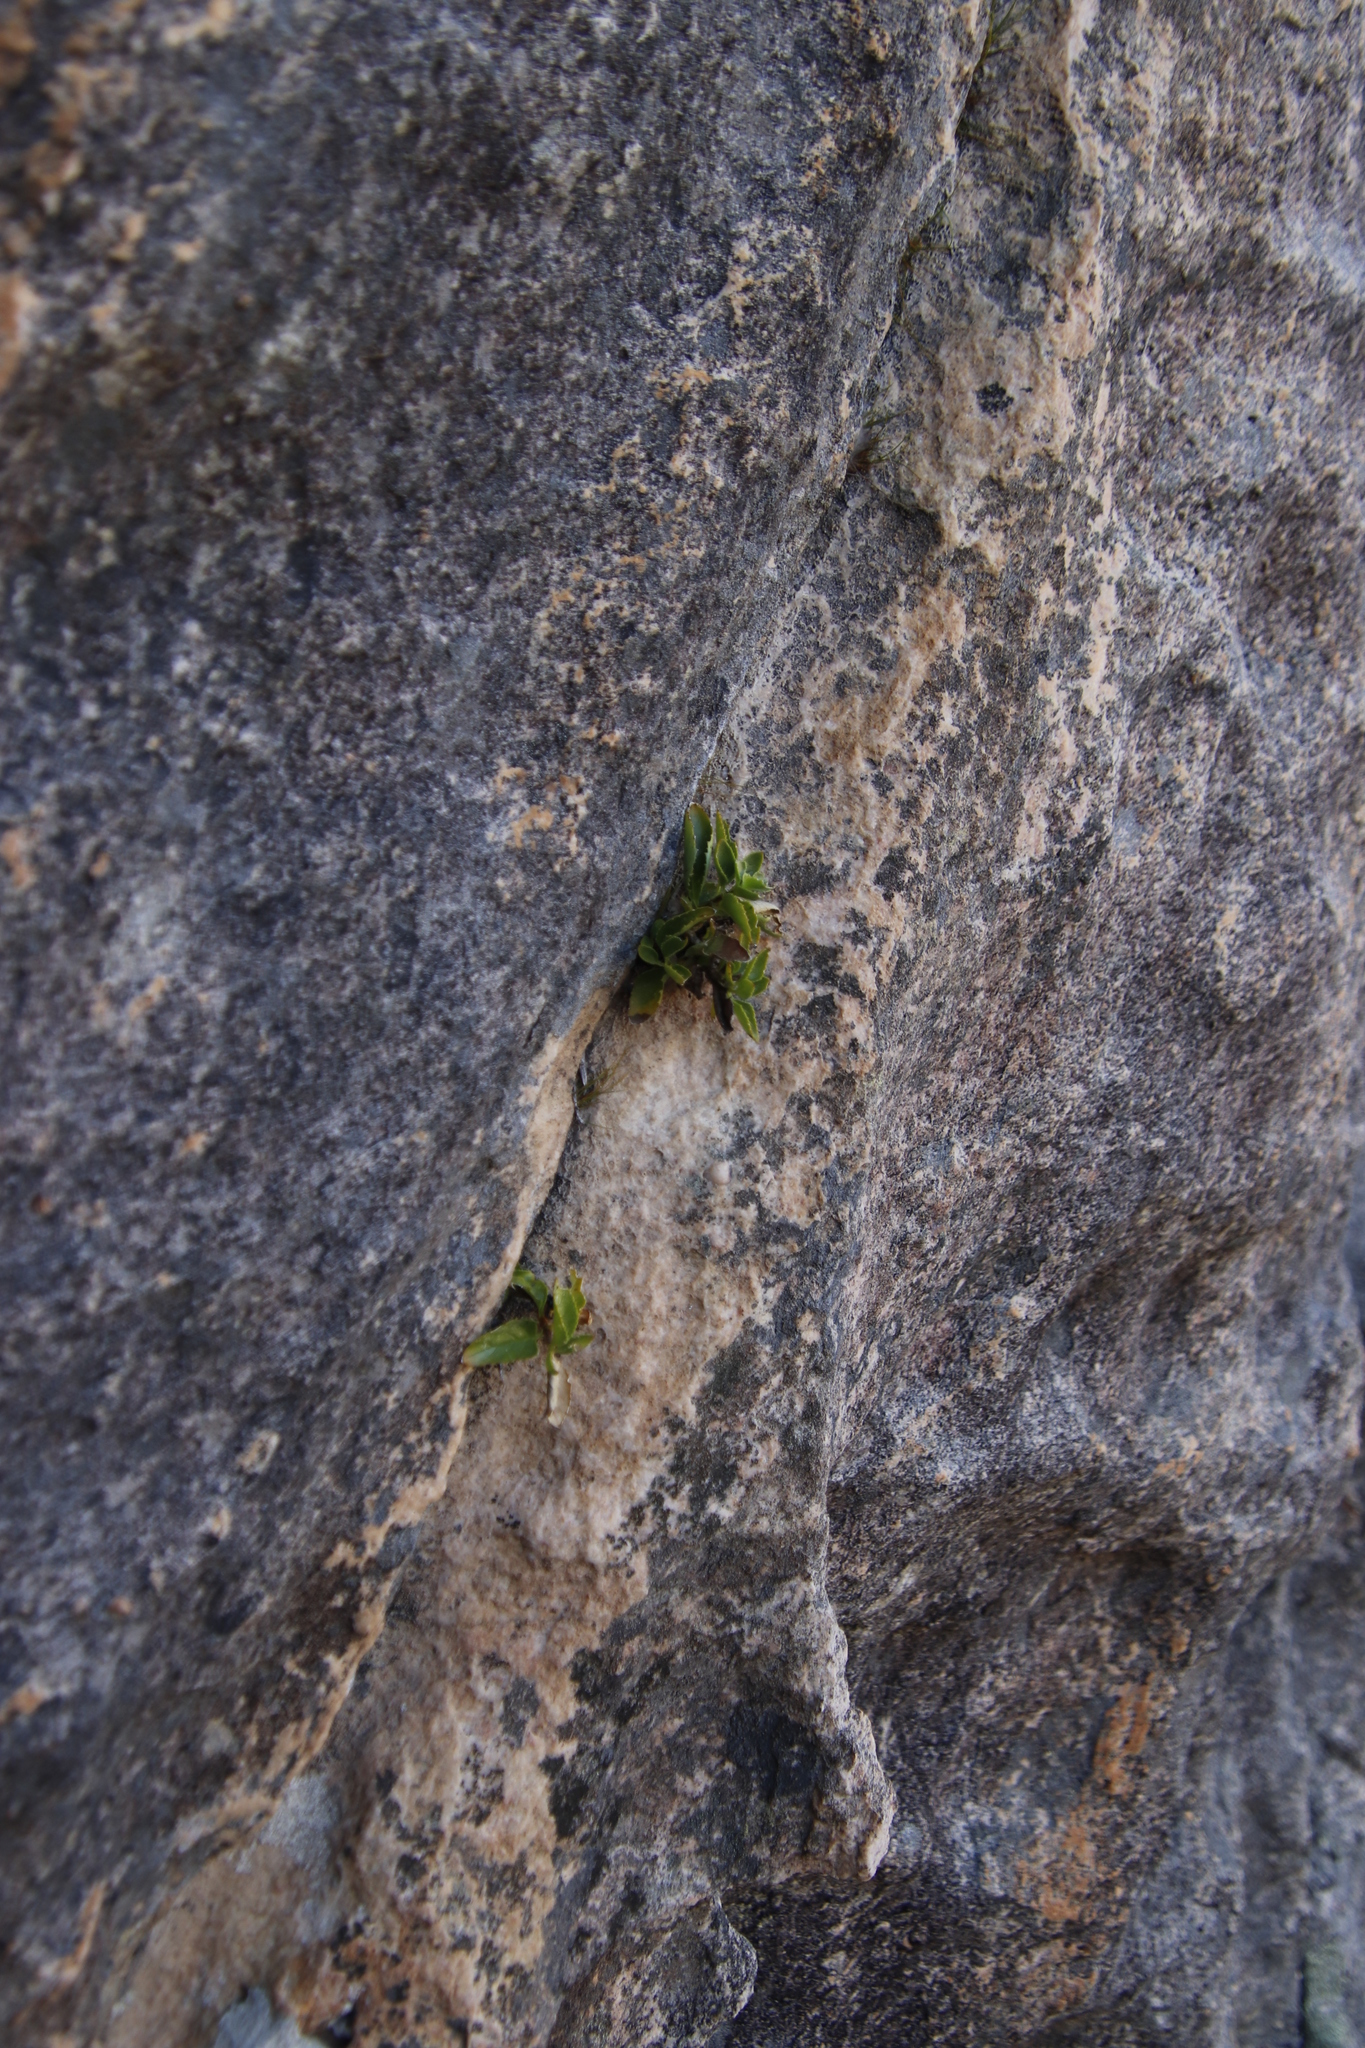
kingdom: Plantae
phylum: Tracheophyta
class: Magnoliopsida
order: Lamiales
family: Scrophulariaceae
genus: Teedia
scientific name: Teedia lucida
